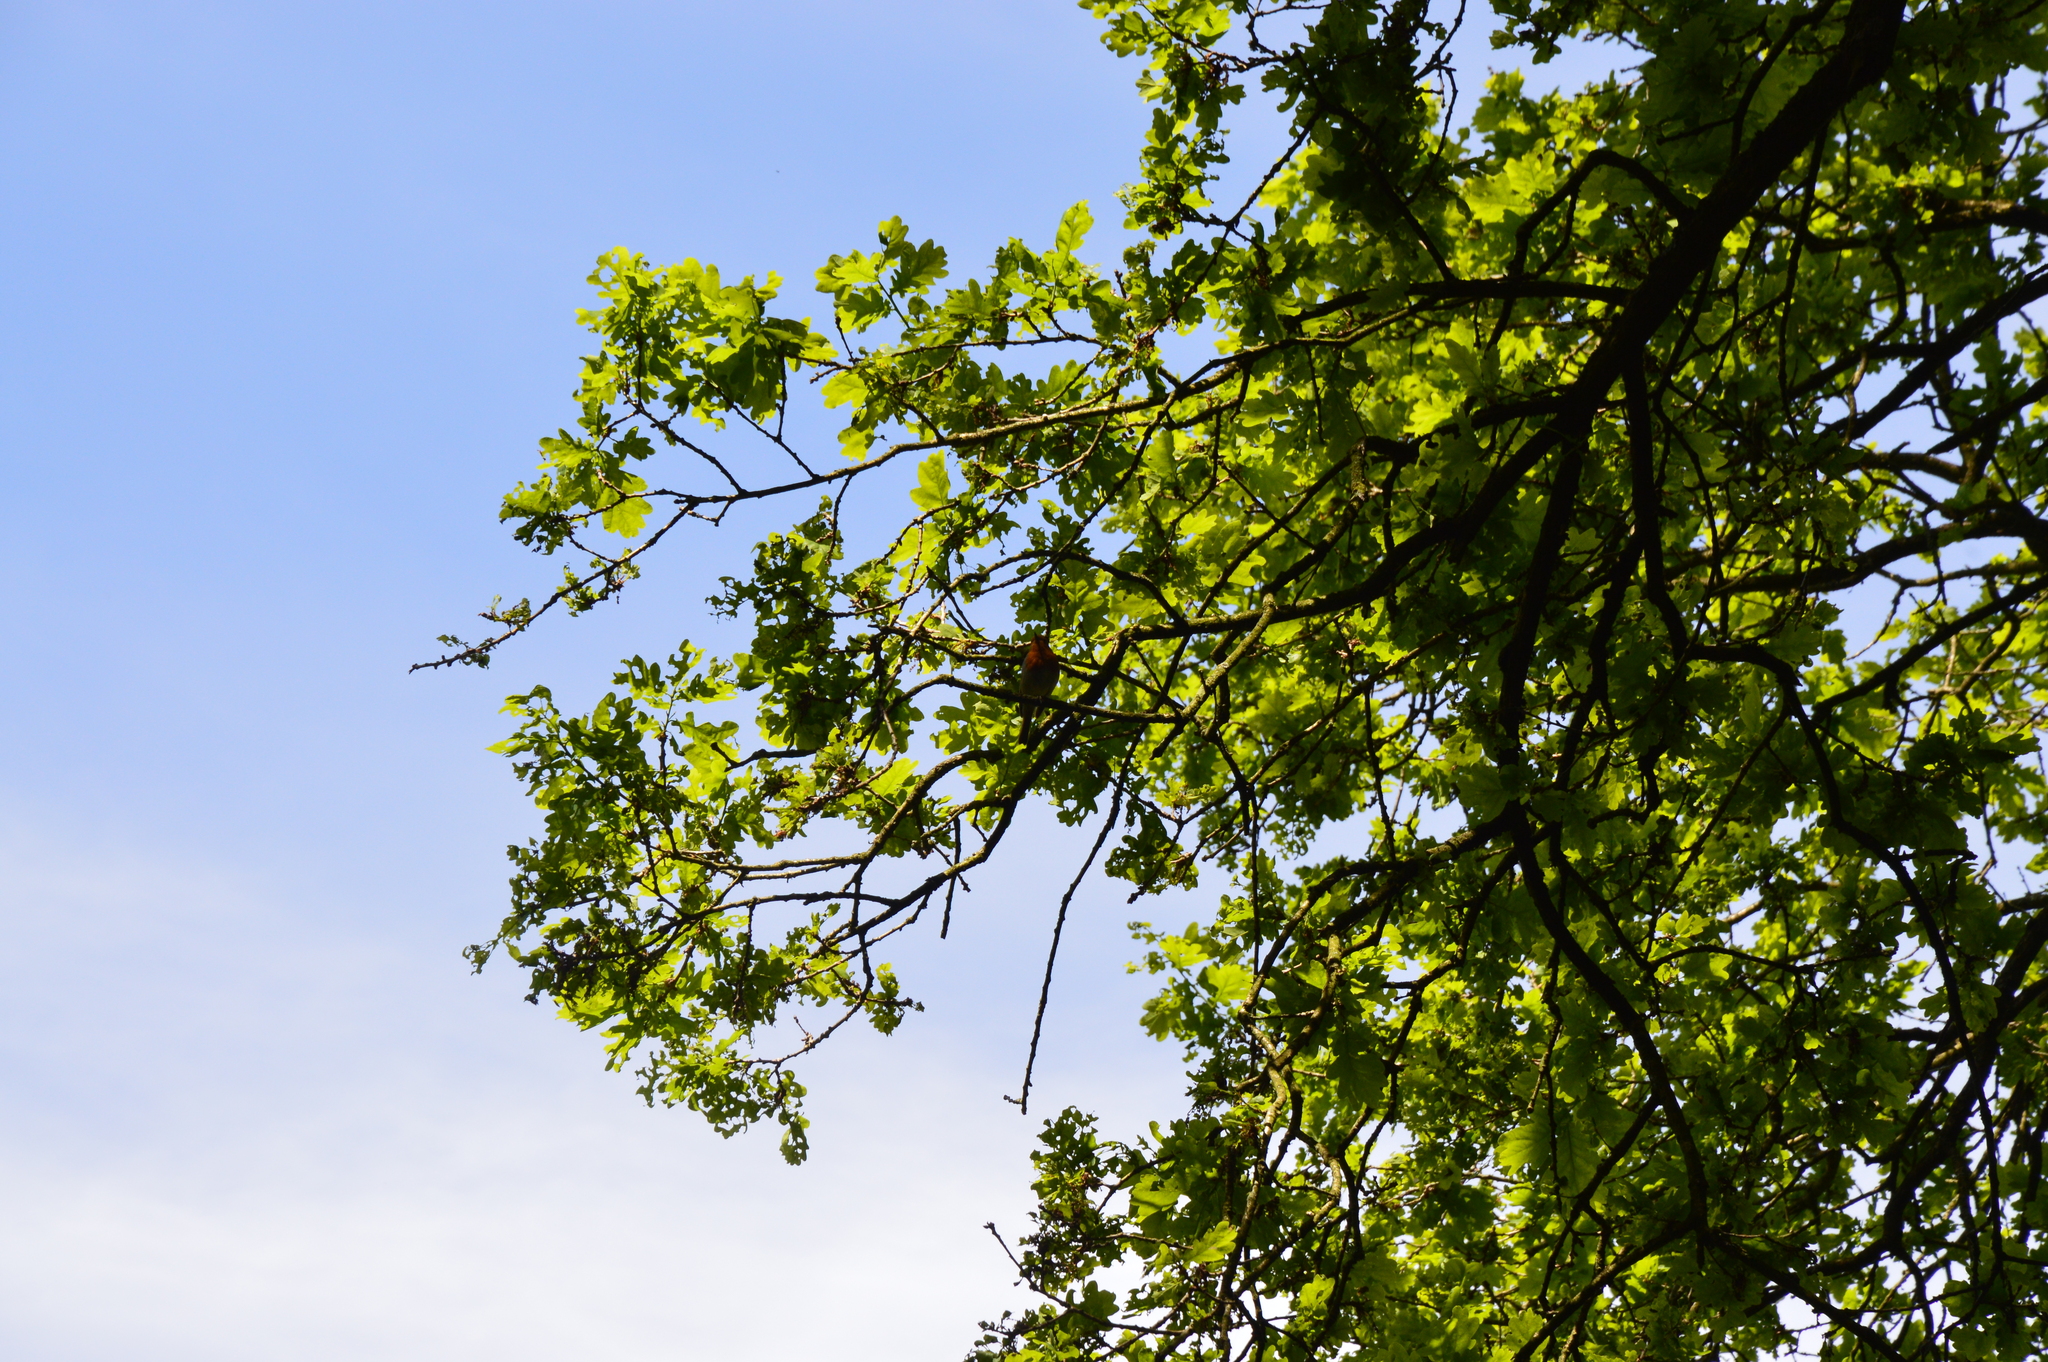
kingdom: Animalia
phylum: Chordata
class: Aves
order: Passeriformes
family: Muscicapidae
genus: Erithacus
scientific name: Erithacus rubecula
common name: European robin
